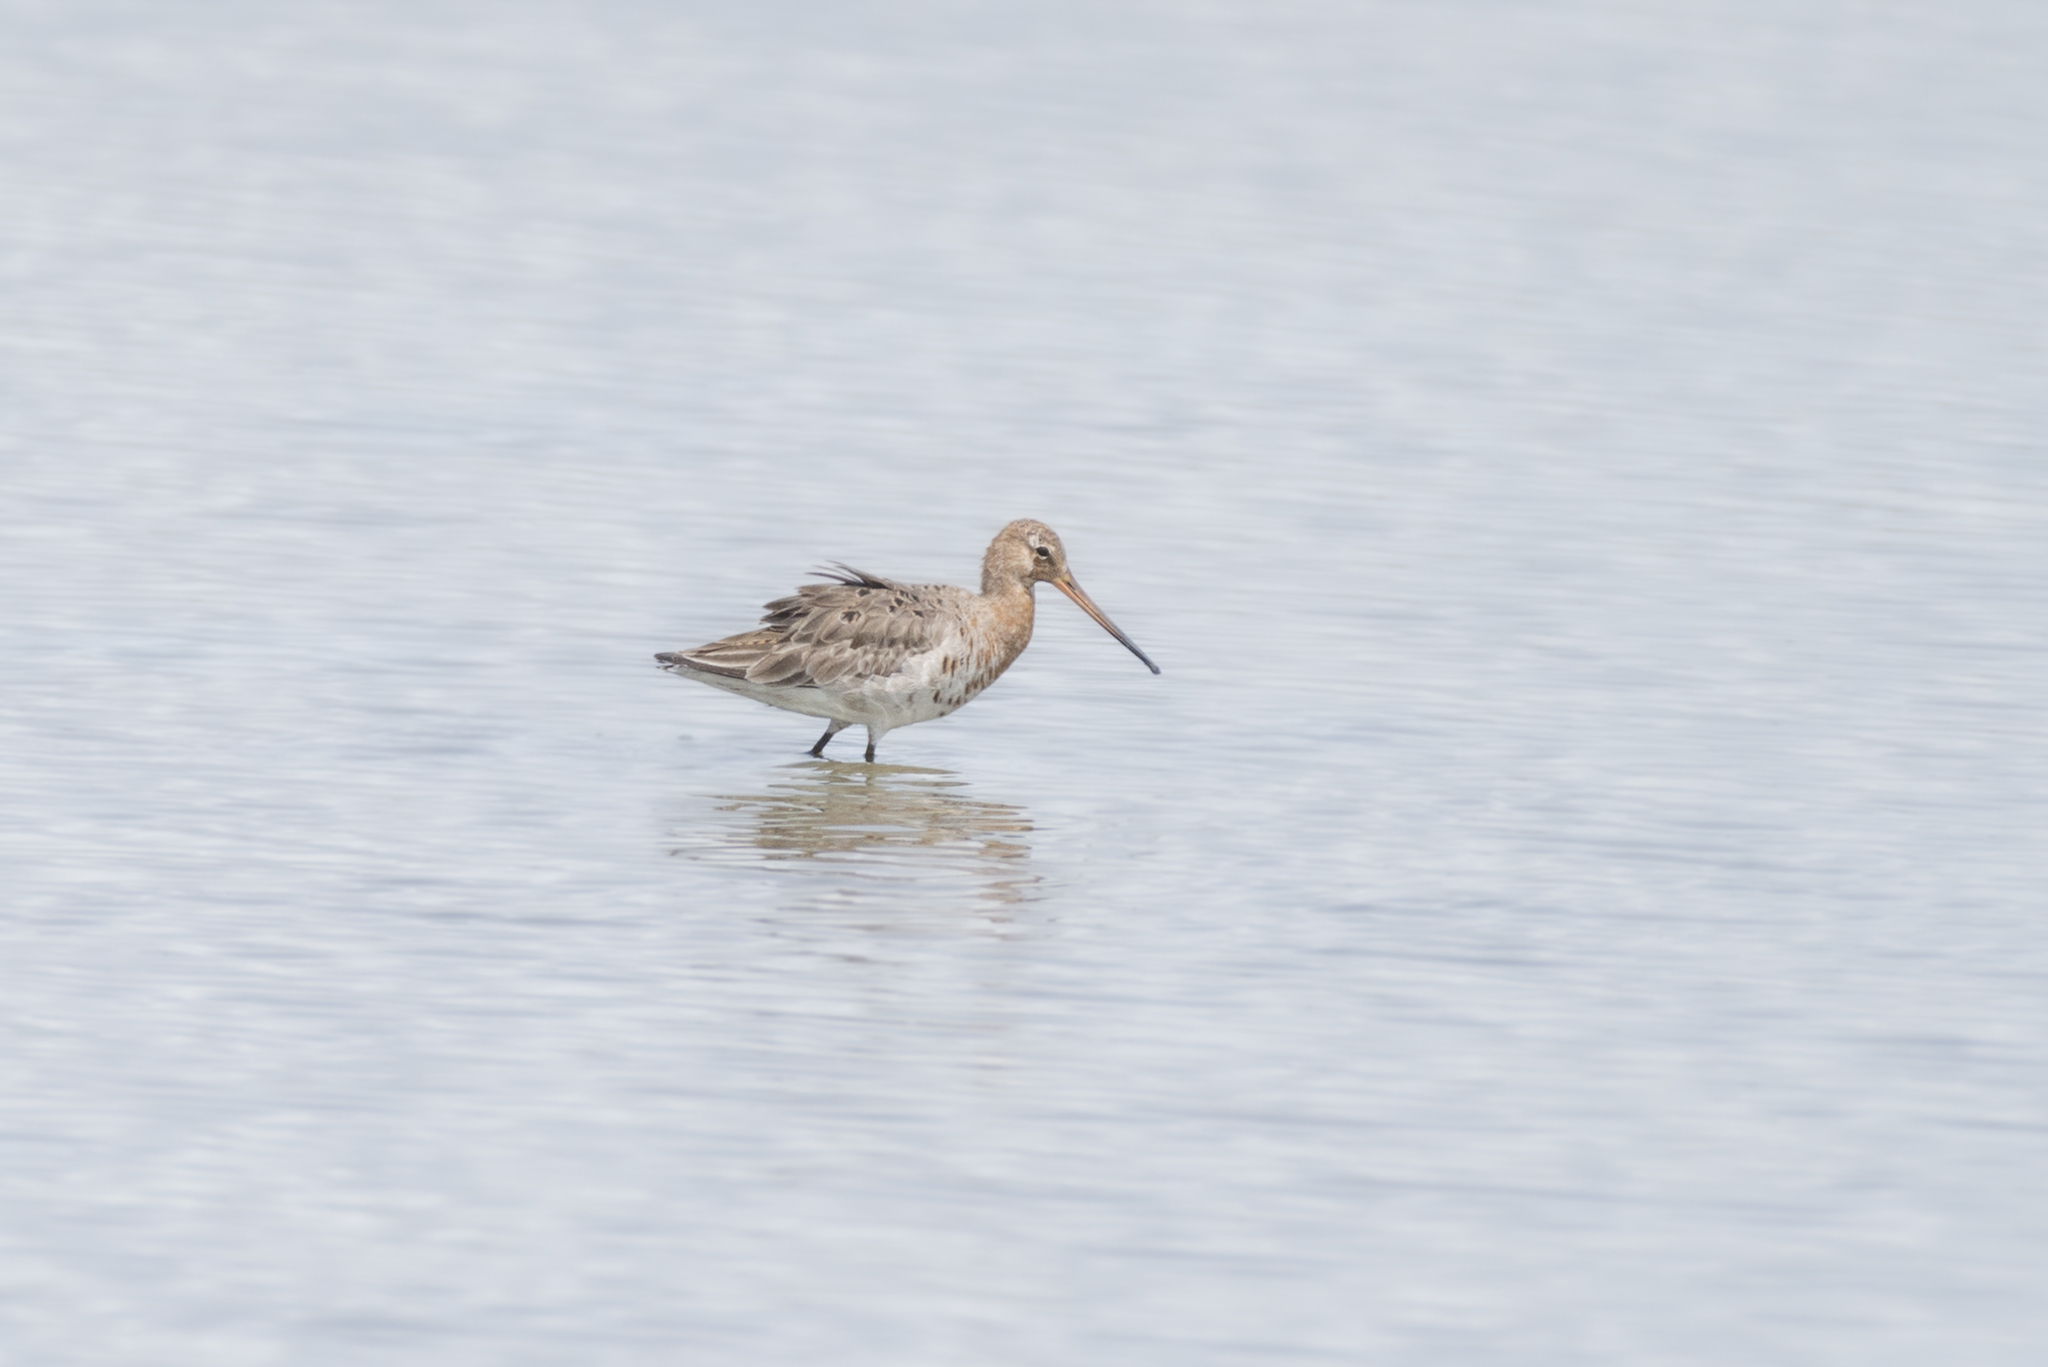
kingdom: Animalia
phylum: Chordata
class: Aves
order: Charadriiformes
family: Scolopacidae
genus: Limosa
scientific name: Limosa limosa
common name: Black-tailed godwit
